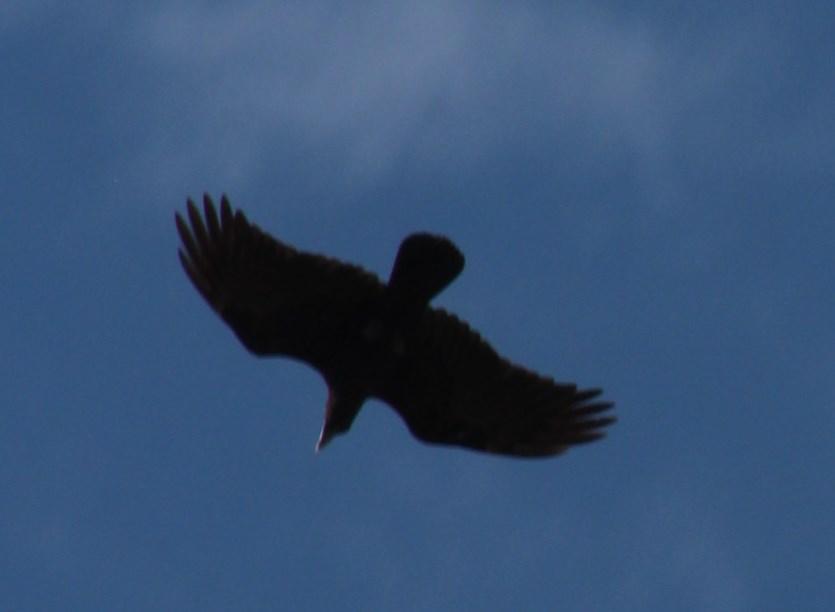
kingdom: Animalia
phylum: Chordata
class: Aves
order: Passeriformes
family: Corvidae
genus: Corvus
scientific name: Corvus albicollis
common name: White-necked raven
